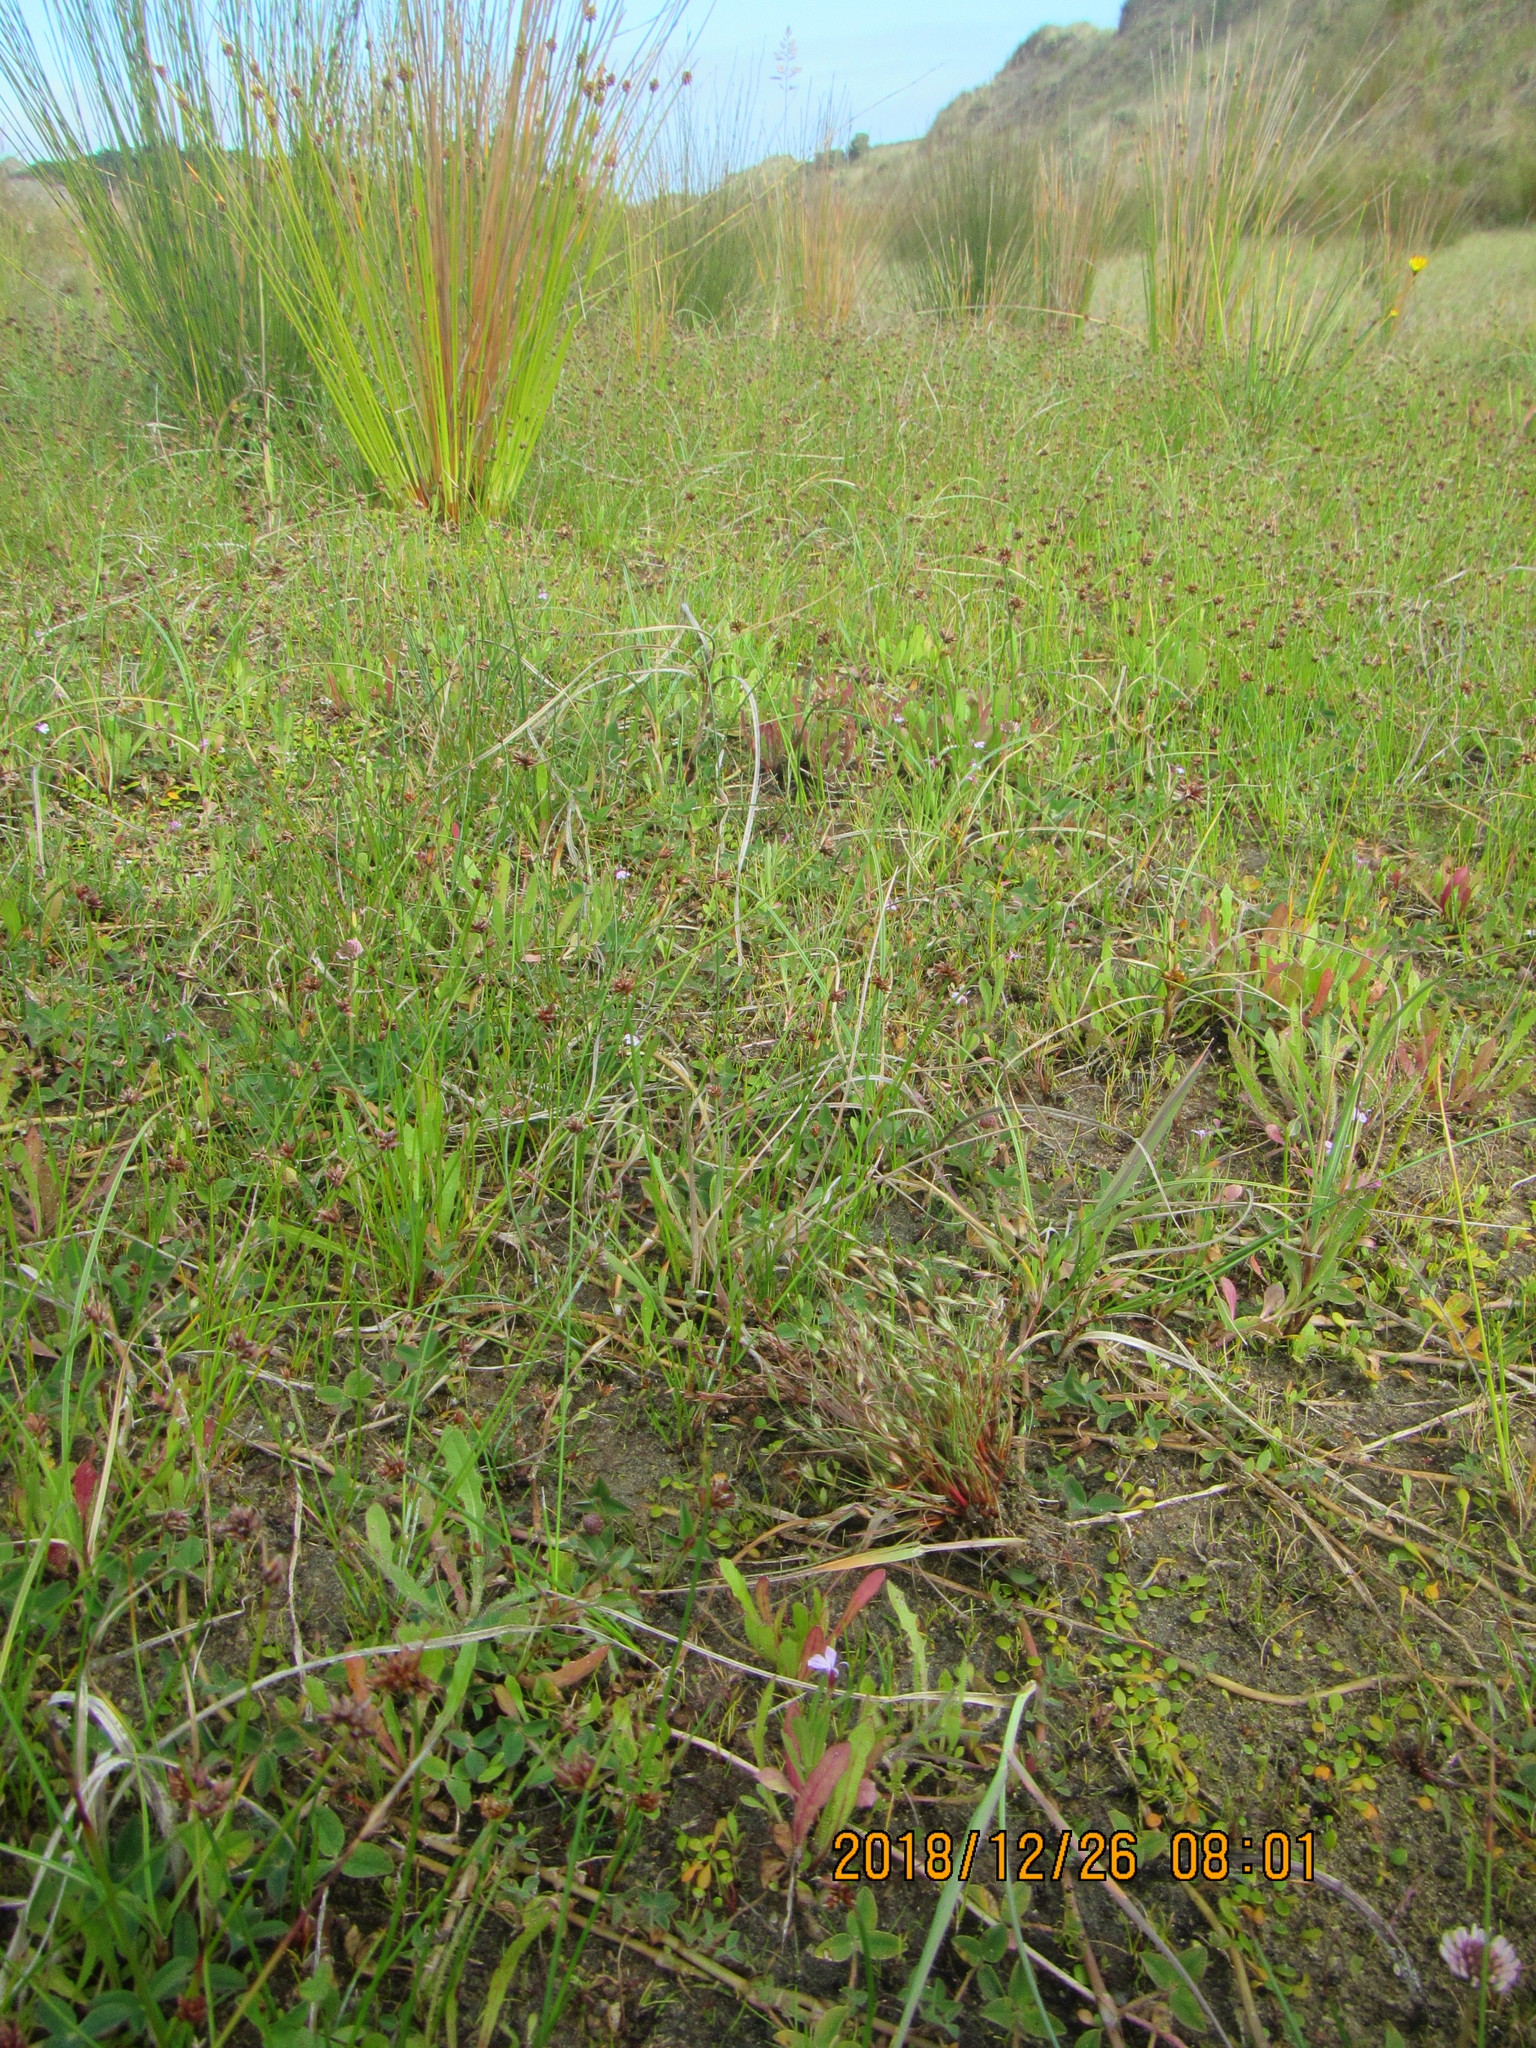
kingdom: Plantae
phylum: Tracheophyta
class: Liliopsida
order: Poales
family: Juncaceae
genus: Juncus
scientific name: Juncus bufonius
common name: Toad rush
